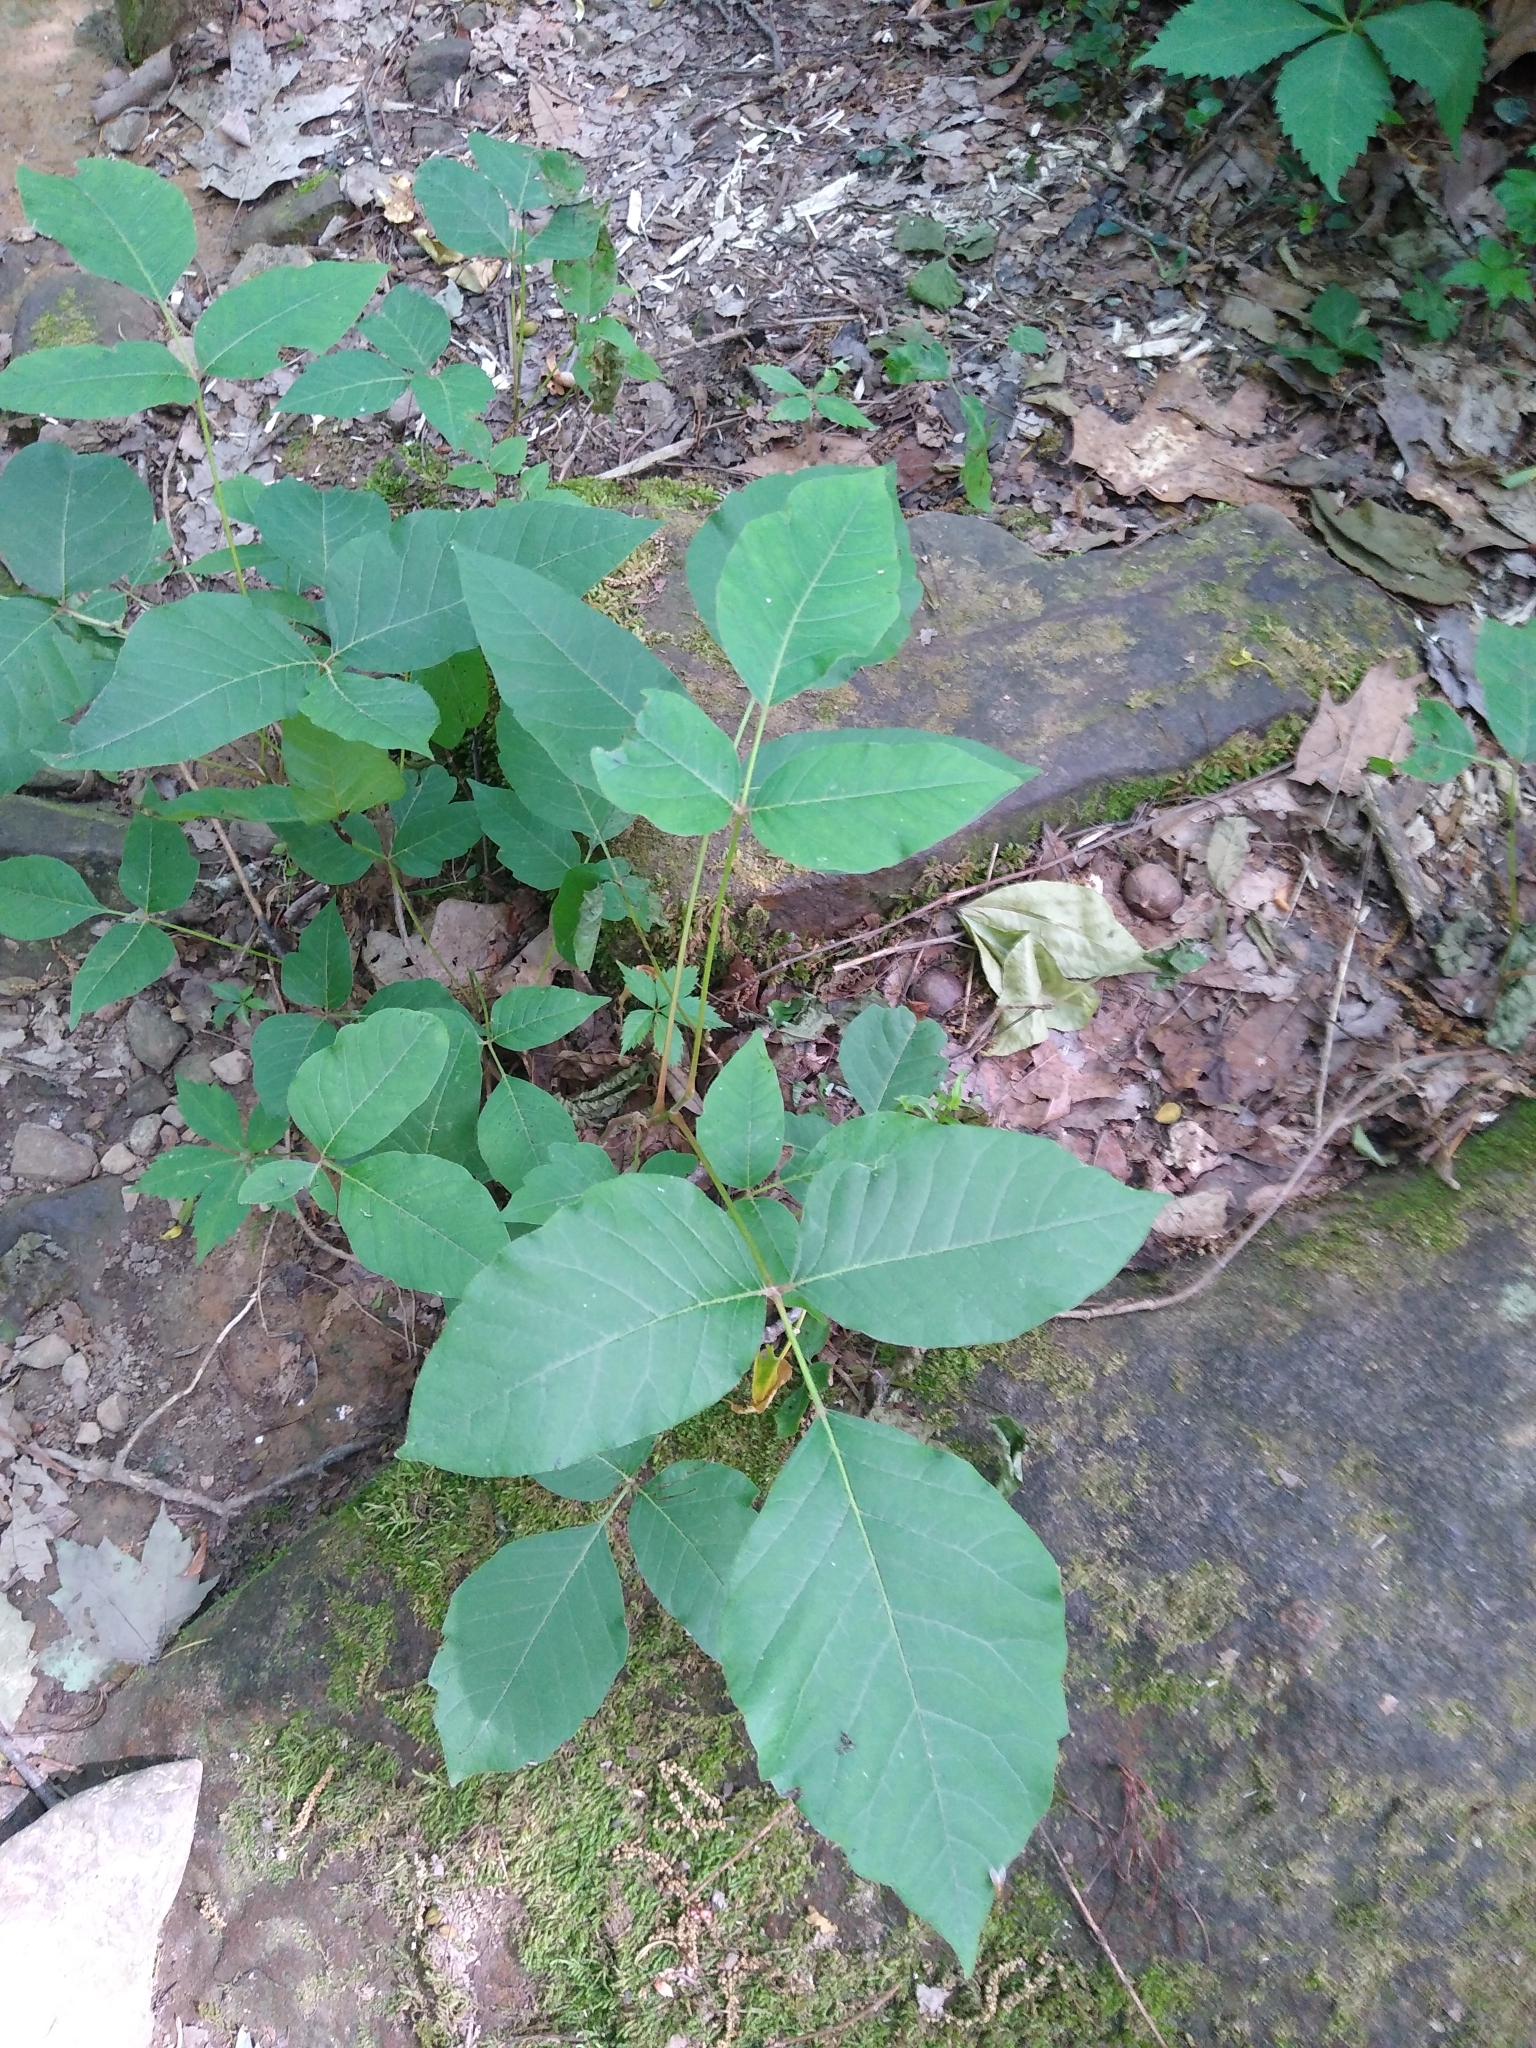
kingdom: Plantae
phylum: Tracheophyta
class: Magnoliopsida
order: Sapindales
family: Anacardiaceae
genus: Toxicodendron
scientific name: Toxicodendron radicans
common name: Poison ivy
